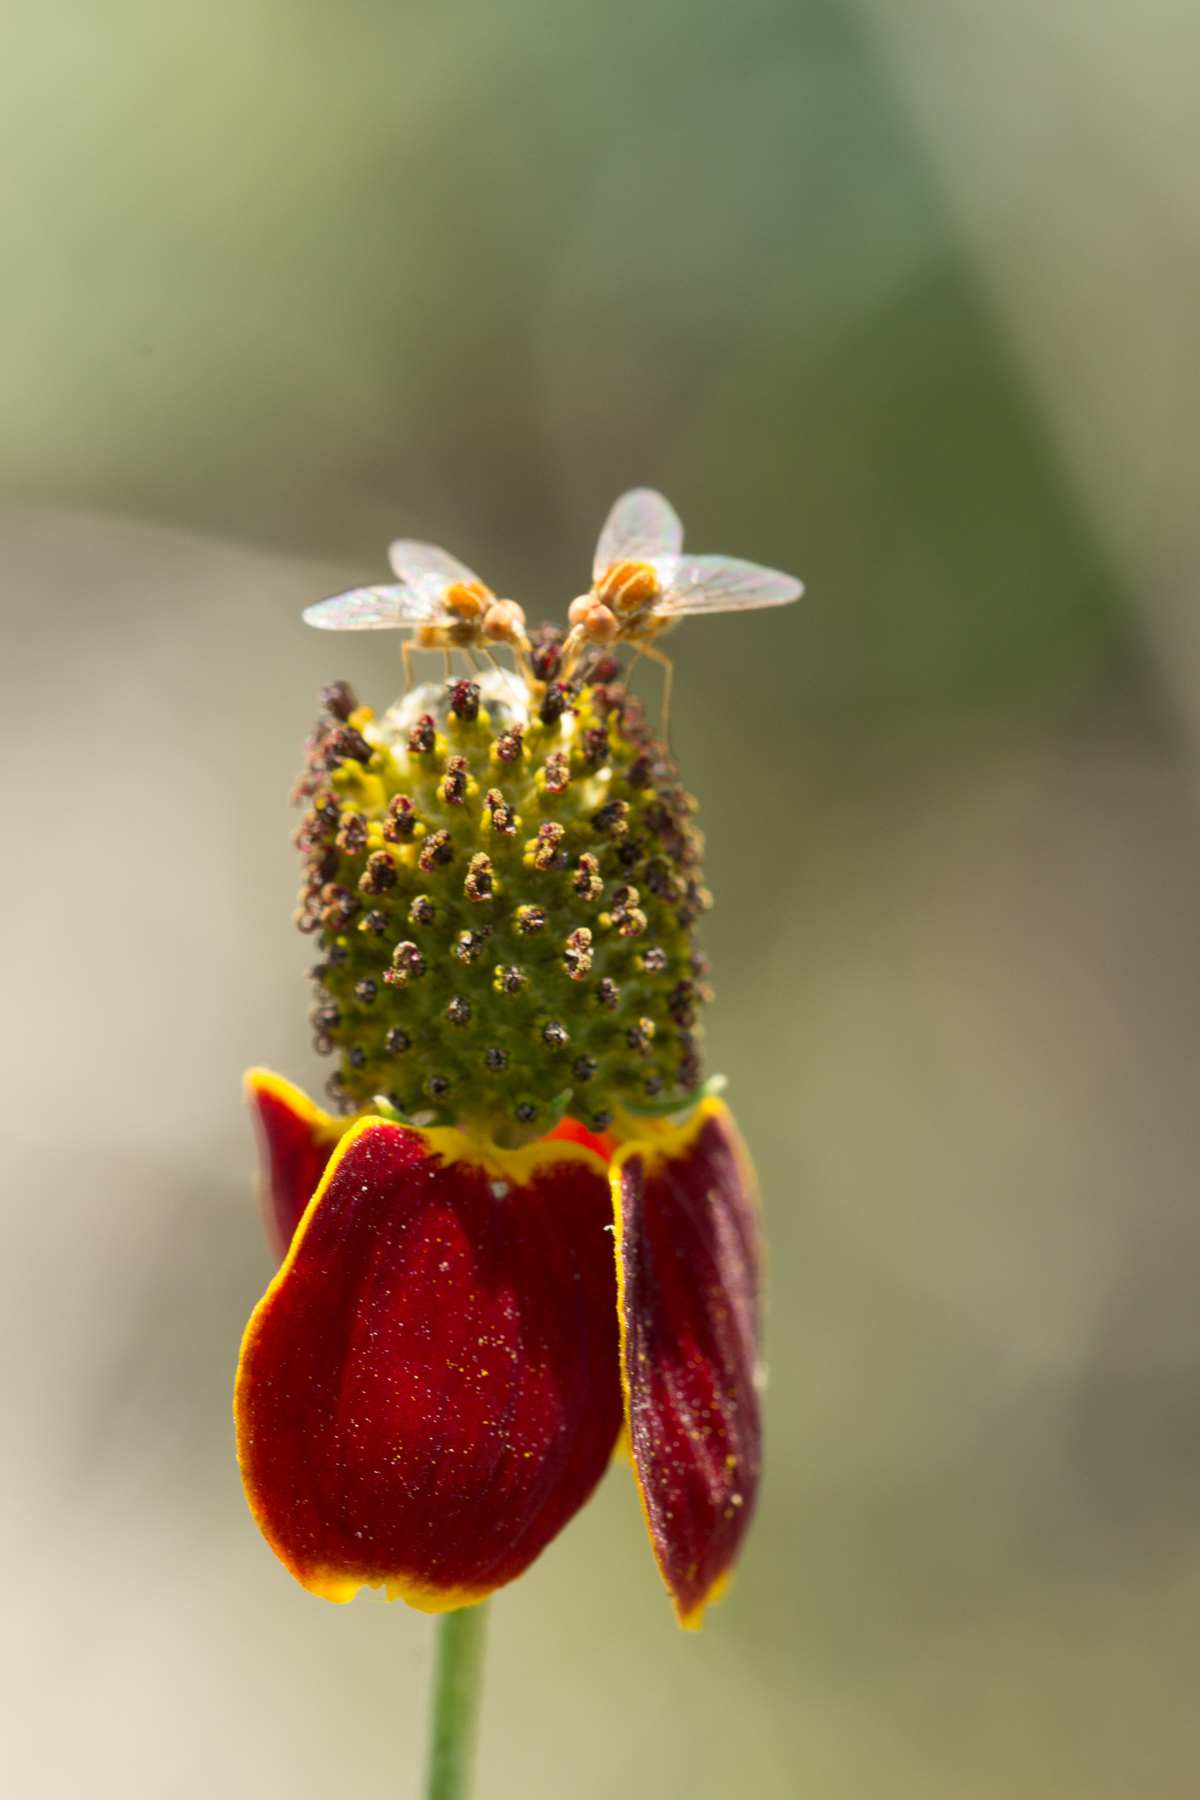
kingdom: Plantae
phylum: Tracheophyta
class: Magnoliopsida
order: Asterales
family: Asteraceae
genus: Ratibida
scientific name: Ratibida columnifera
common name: Prairie coneflower
